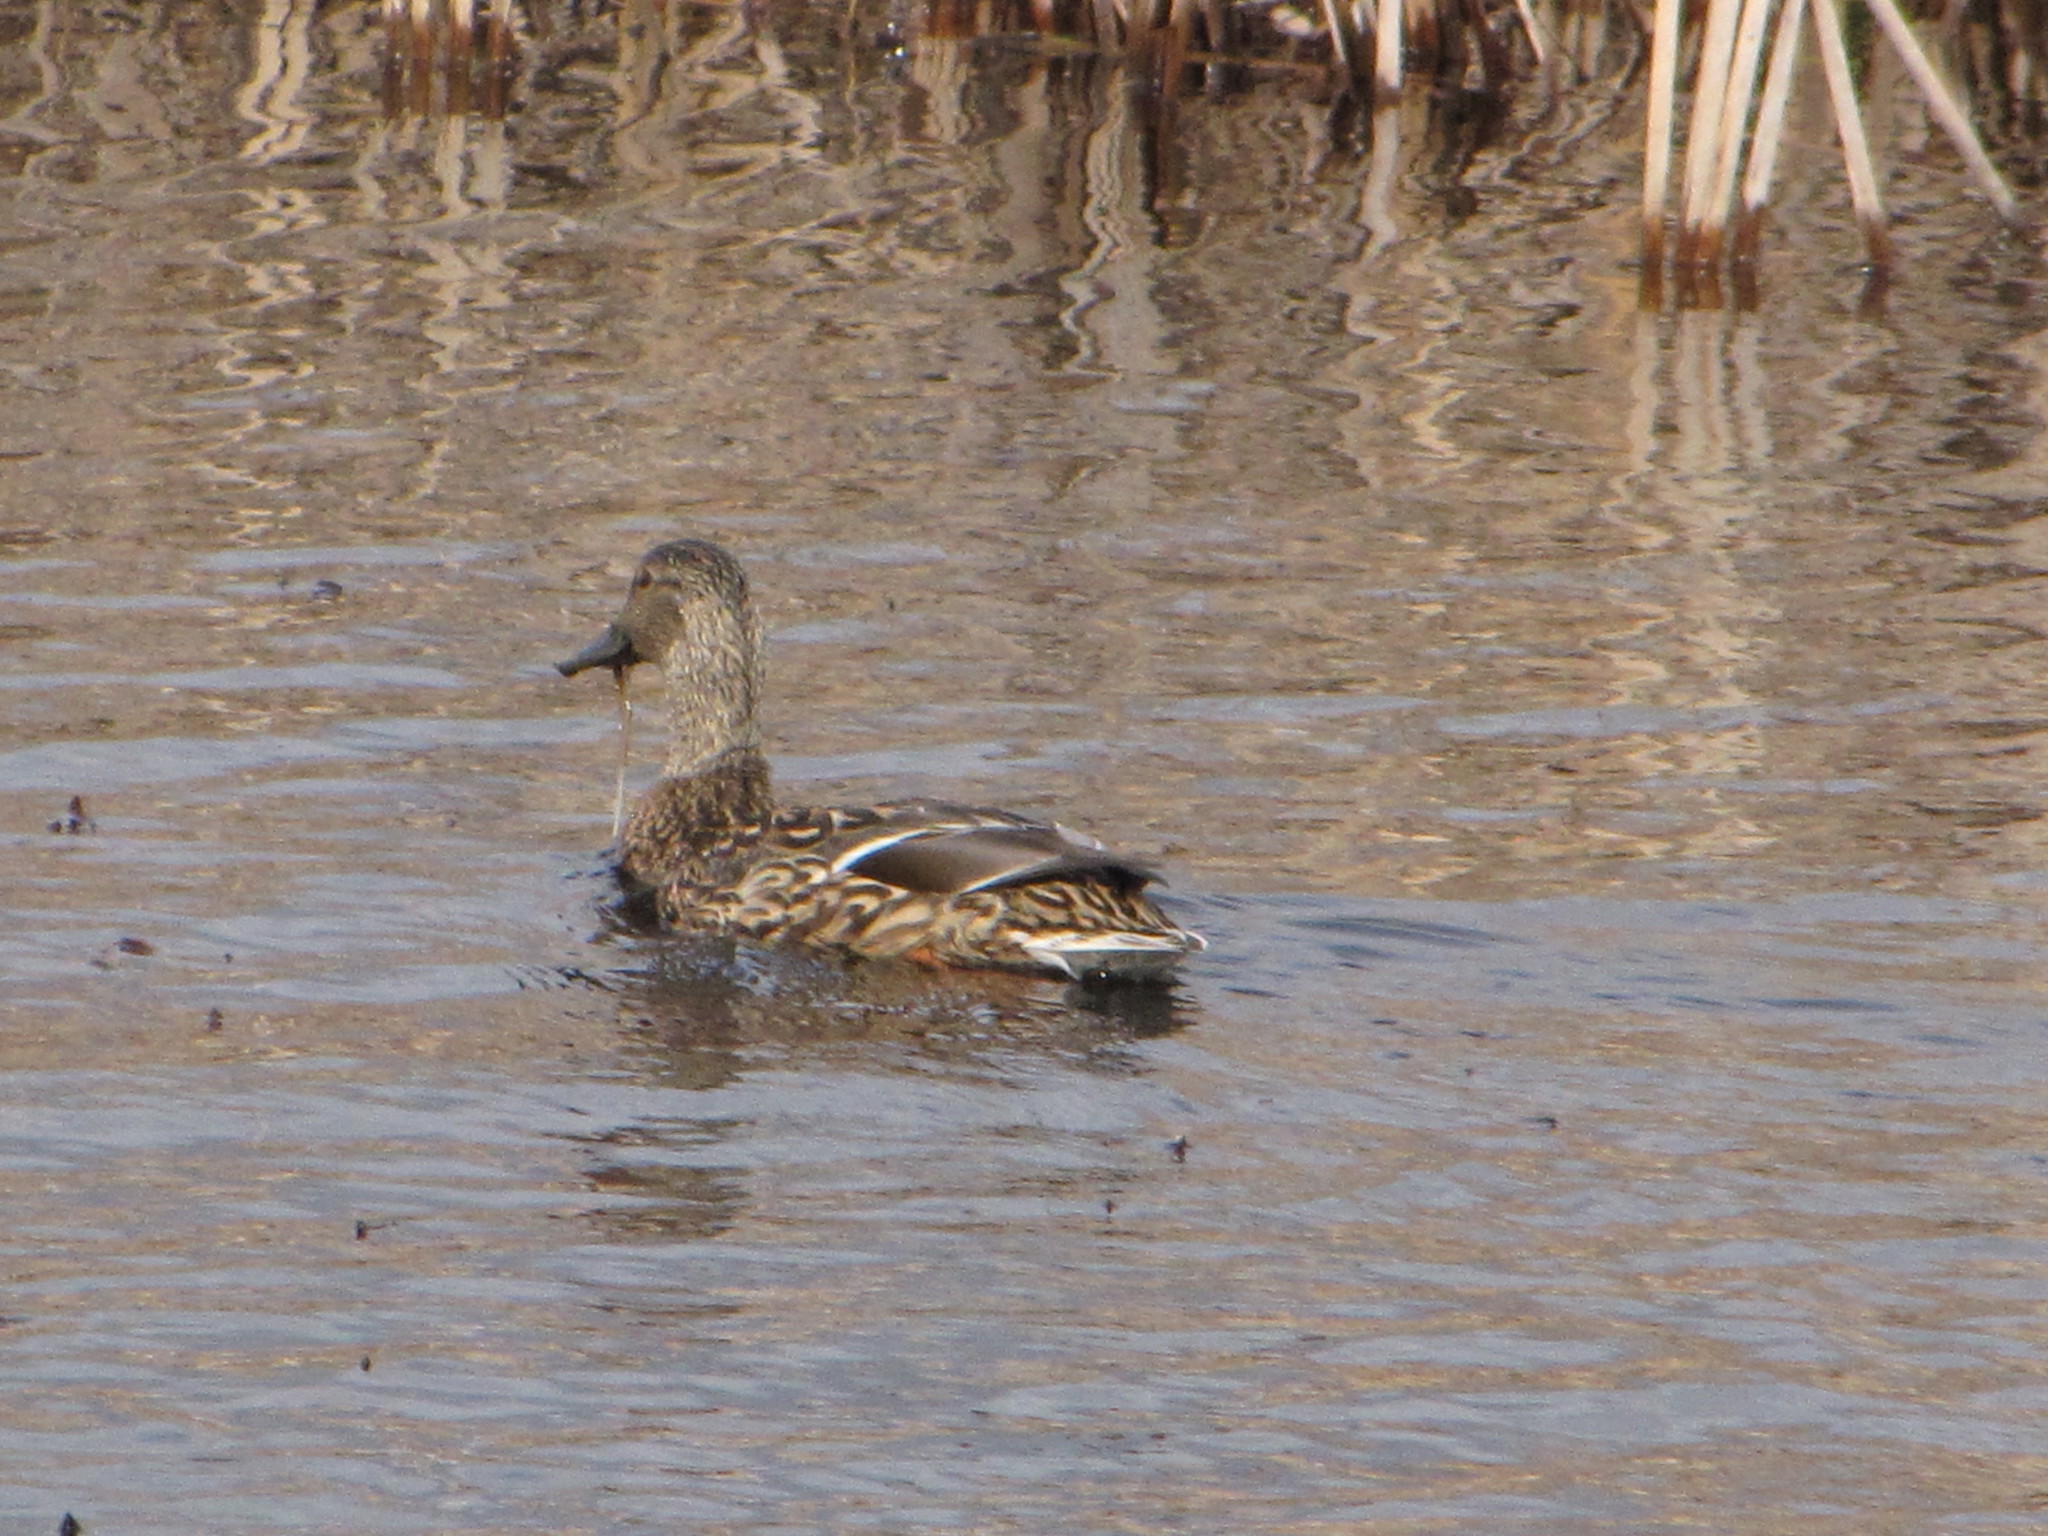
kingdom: Animalia
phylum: Chordata
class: Aves
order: Anseriformes
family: Anatidae
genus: Anas
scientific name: Anas platyrhynchos
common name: Mallard
